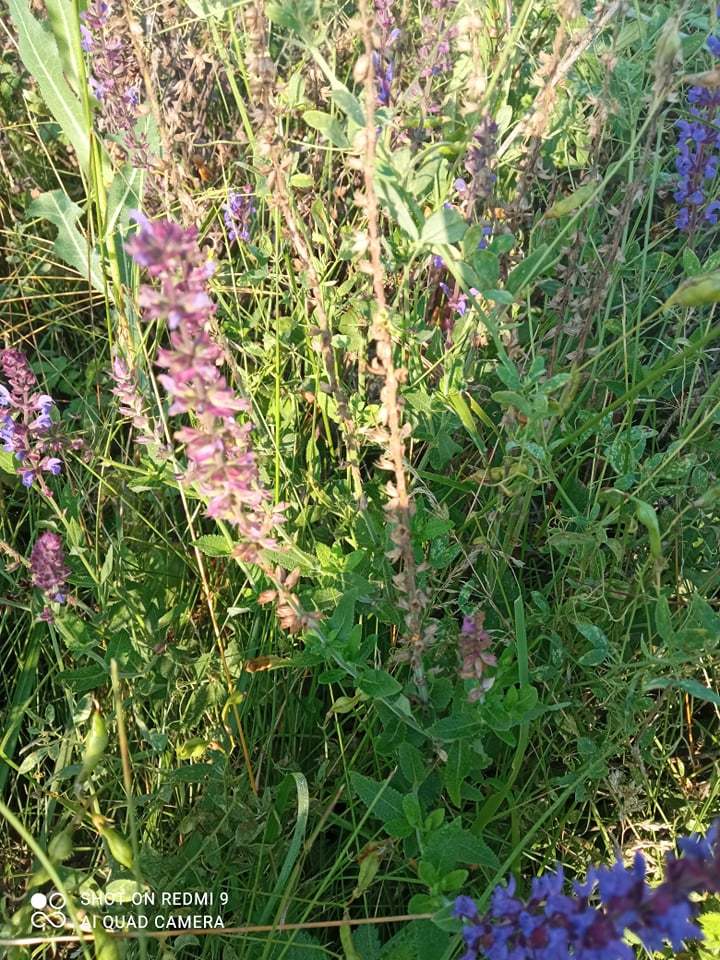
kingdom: Plantae
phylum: Tracheophyta
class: Magnoliopsida
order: Lamiales
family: Lamiaceae
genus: Salvia
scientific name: Salvia nemorosa
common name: Balkan clary
